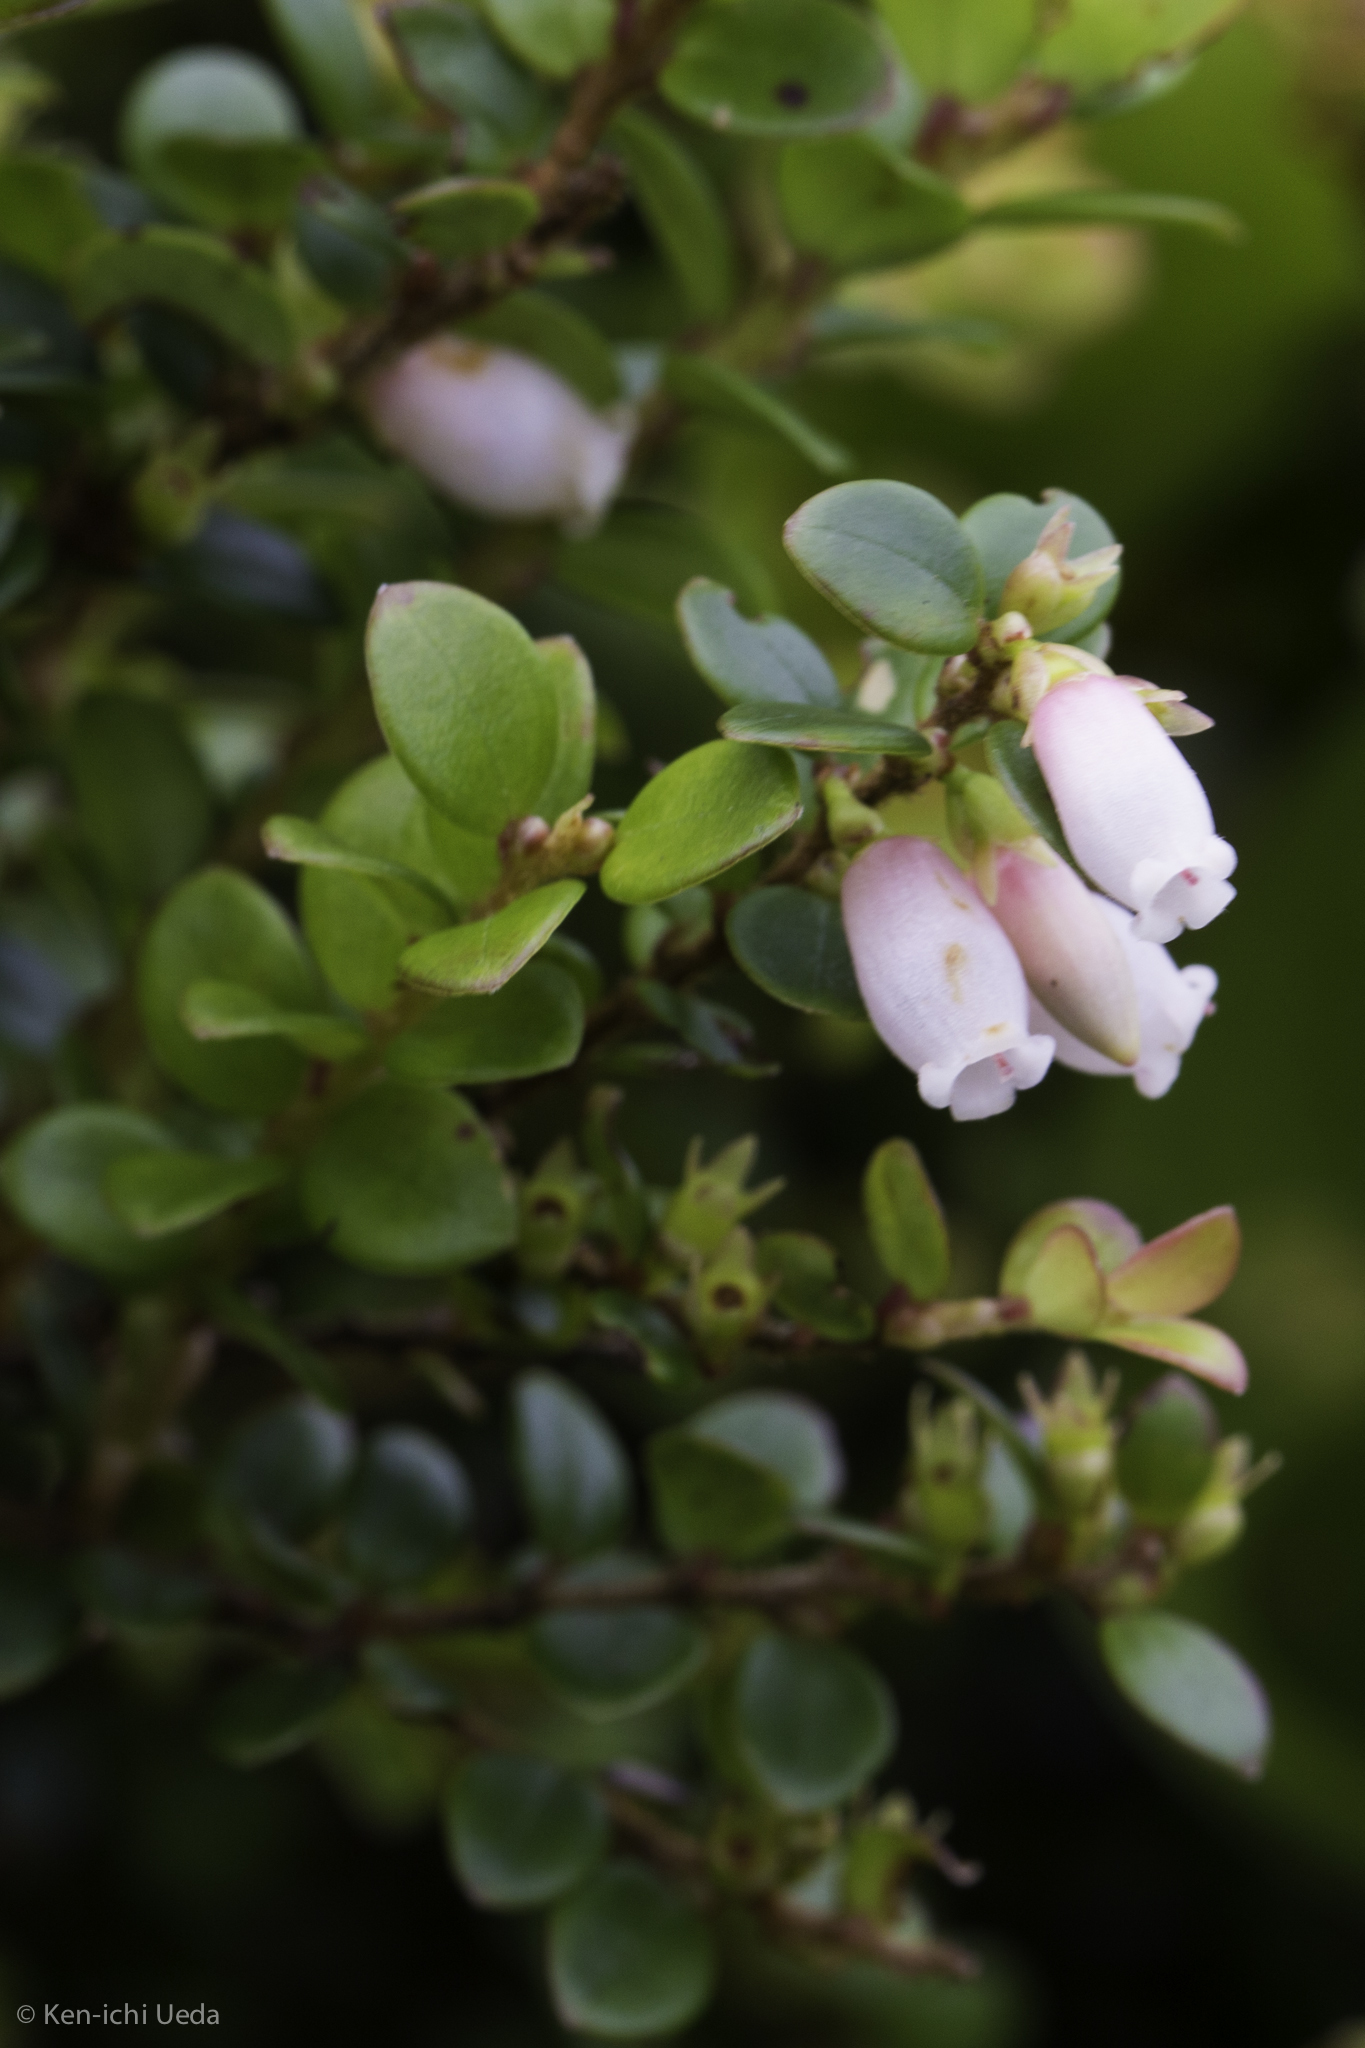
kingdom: Plantae
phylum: Tracheophyta
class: Magnoliopsida
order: Ericales
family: Ericaceae
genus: Disterigma
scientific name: Disterigma humboldtii
